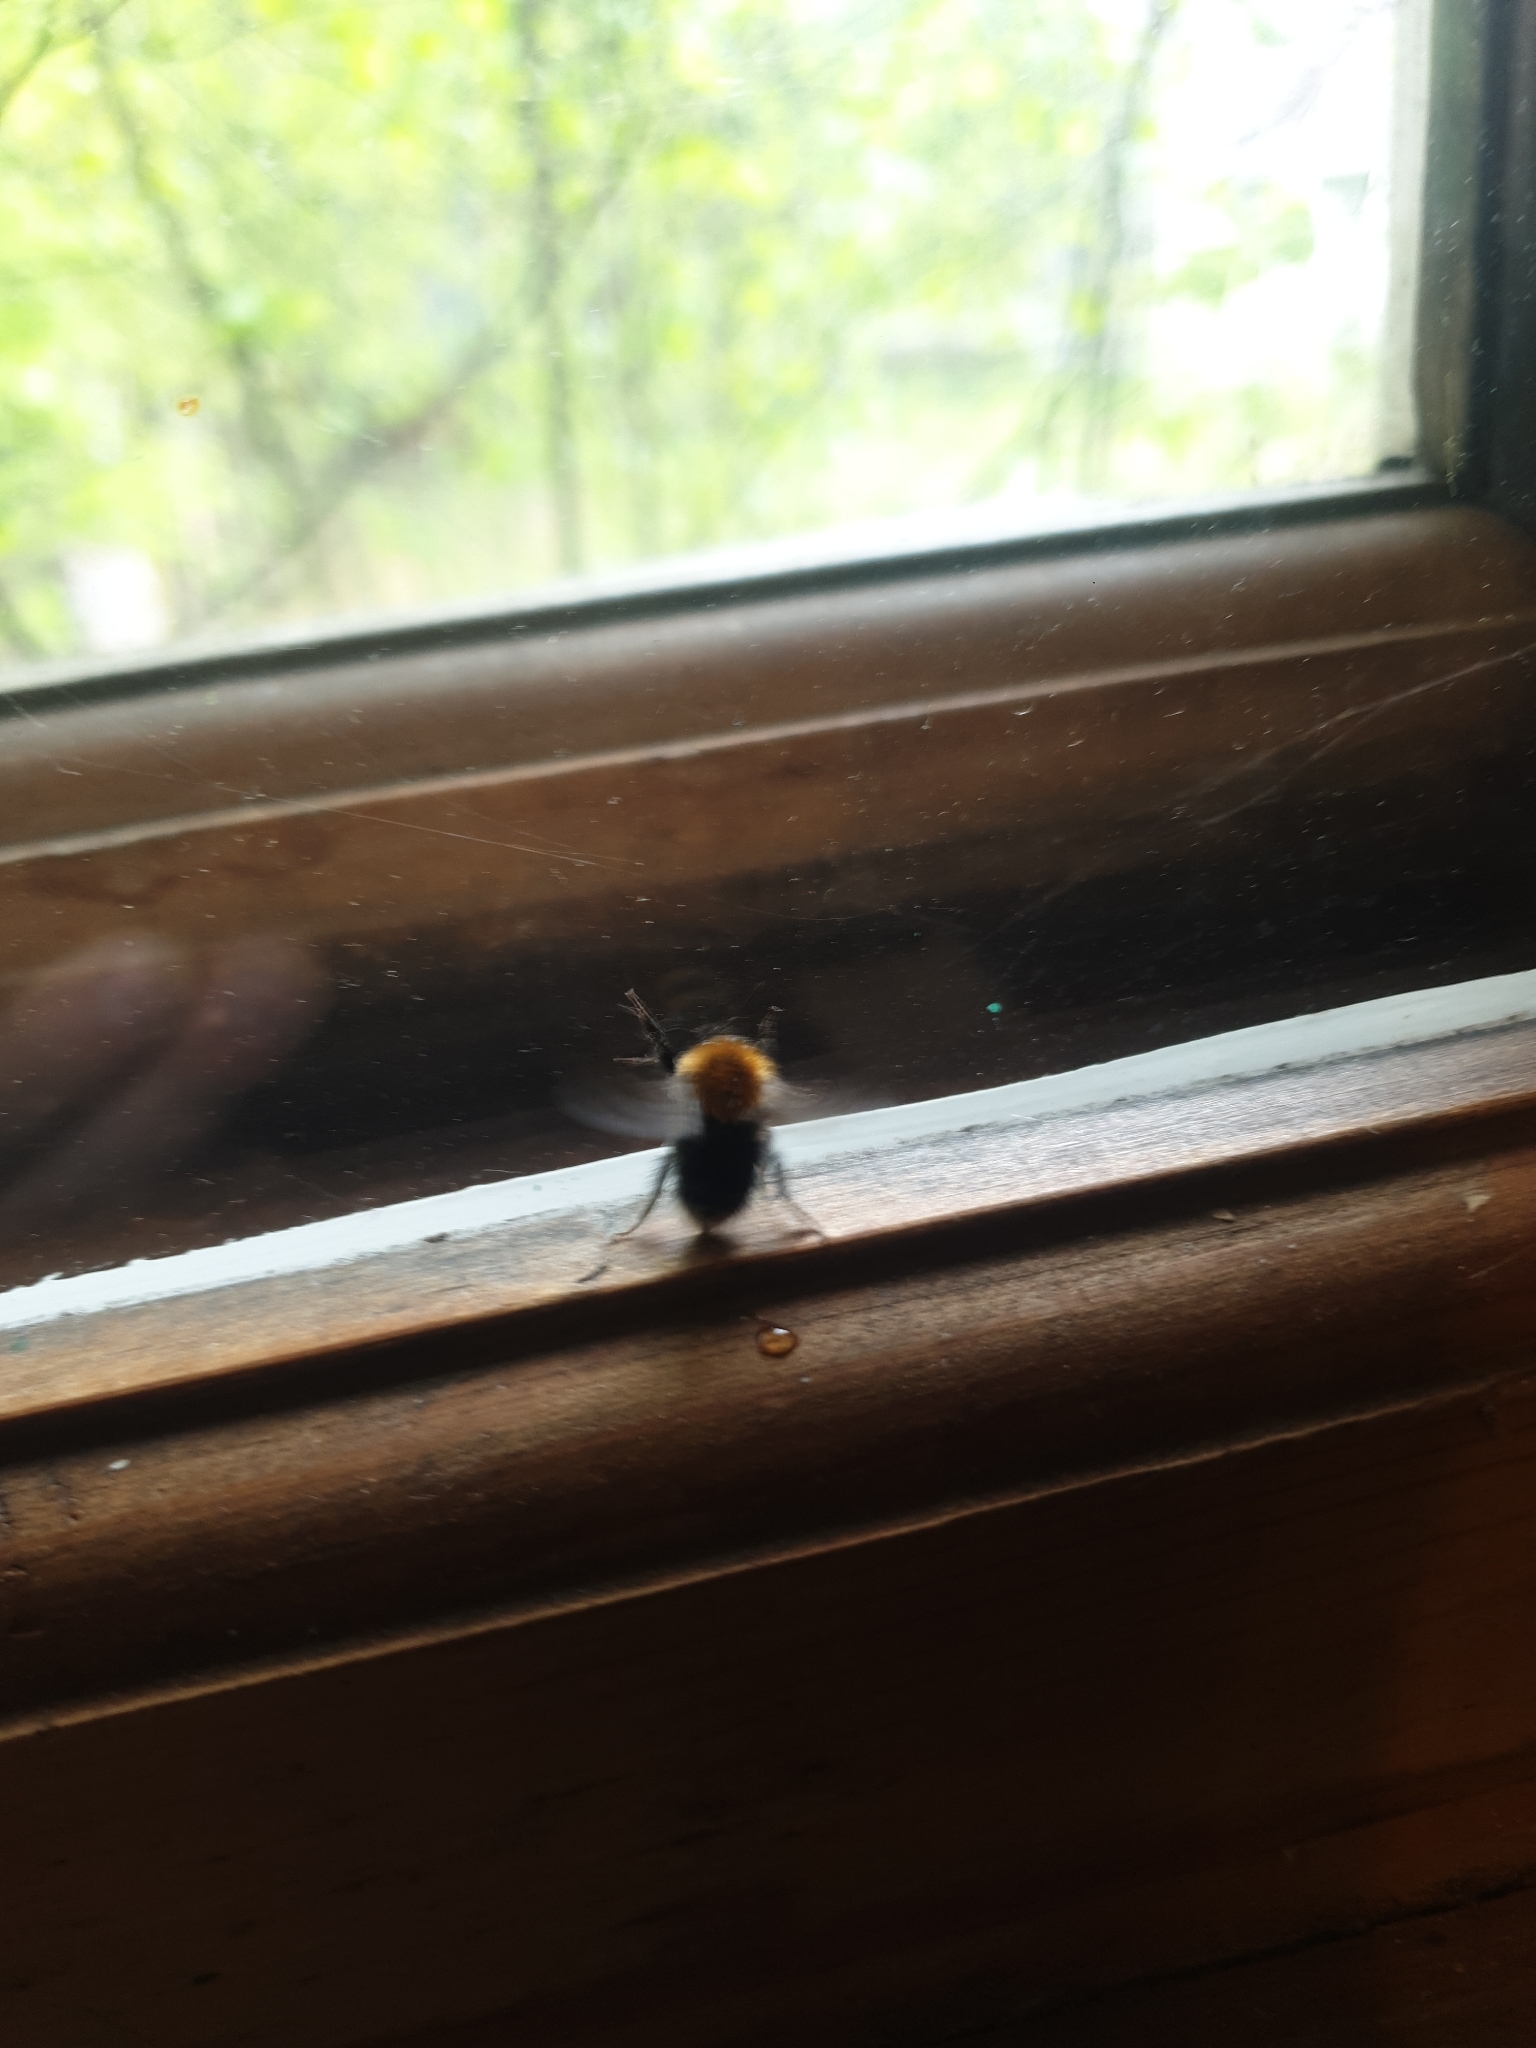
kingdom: Animalia
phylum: Arthropoda
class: Insecta
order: Hymenoptera
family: Apidae
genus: Bombus
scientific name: Bombus hypnorum
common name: New garden bumblebee
